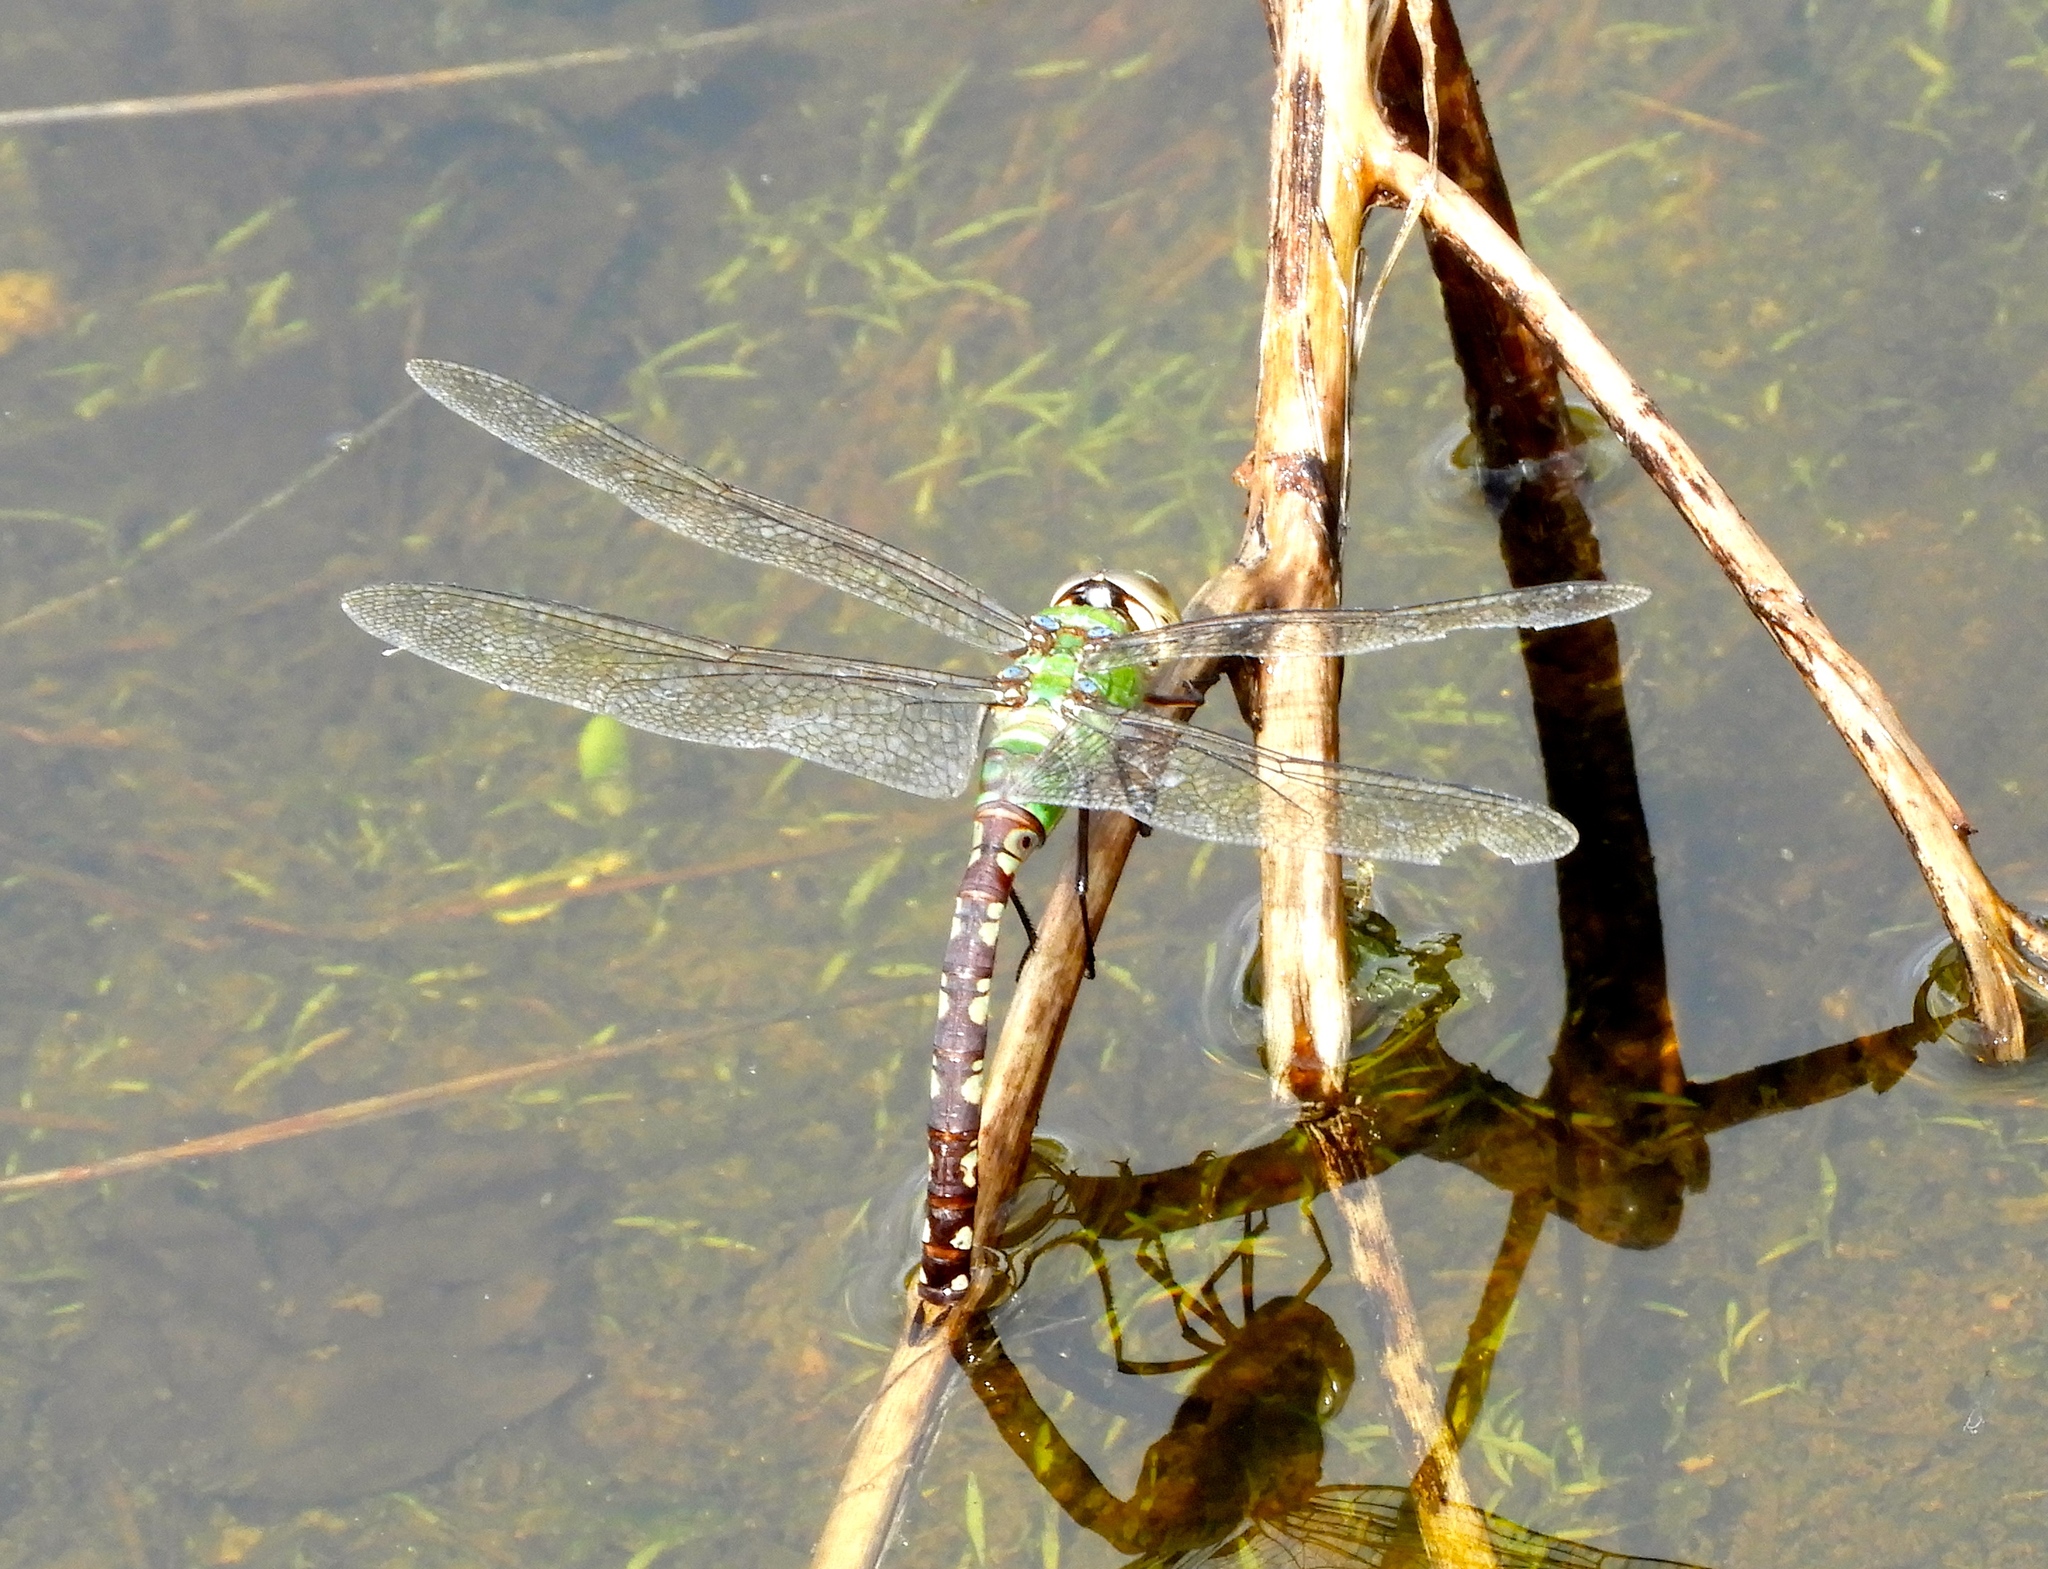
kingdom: Animalia
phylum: Arthropoda
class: Insecta
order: Odonata
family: Aeshnidae
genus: Anax
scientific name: Anax amazili
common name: Amazon darner
